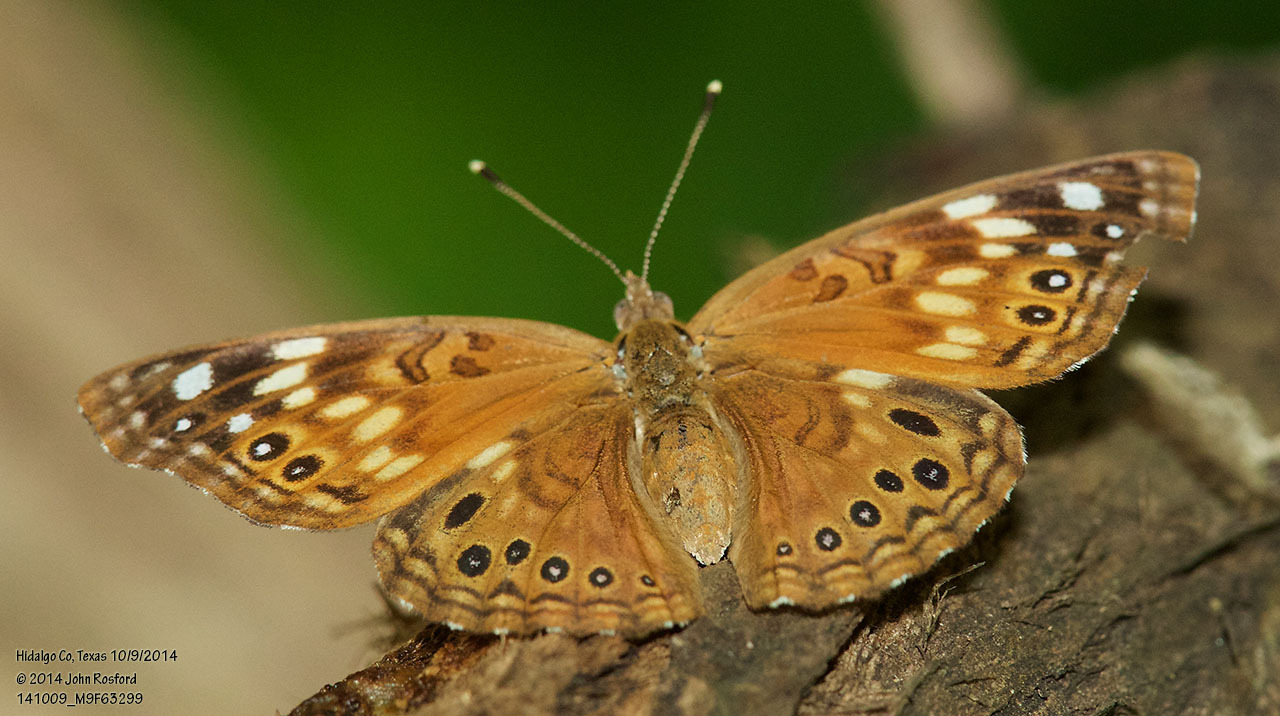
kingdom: Animalia
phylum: Arthropoda
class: Insecta
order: Lepidoptera
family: Nymphalidae
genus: Asterocampa
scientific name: Asterocampa celtis
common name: Hackberry emperor
